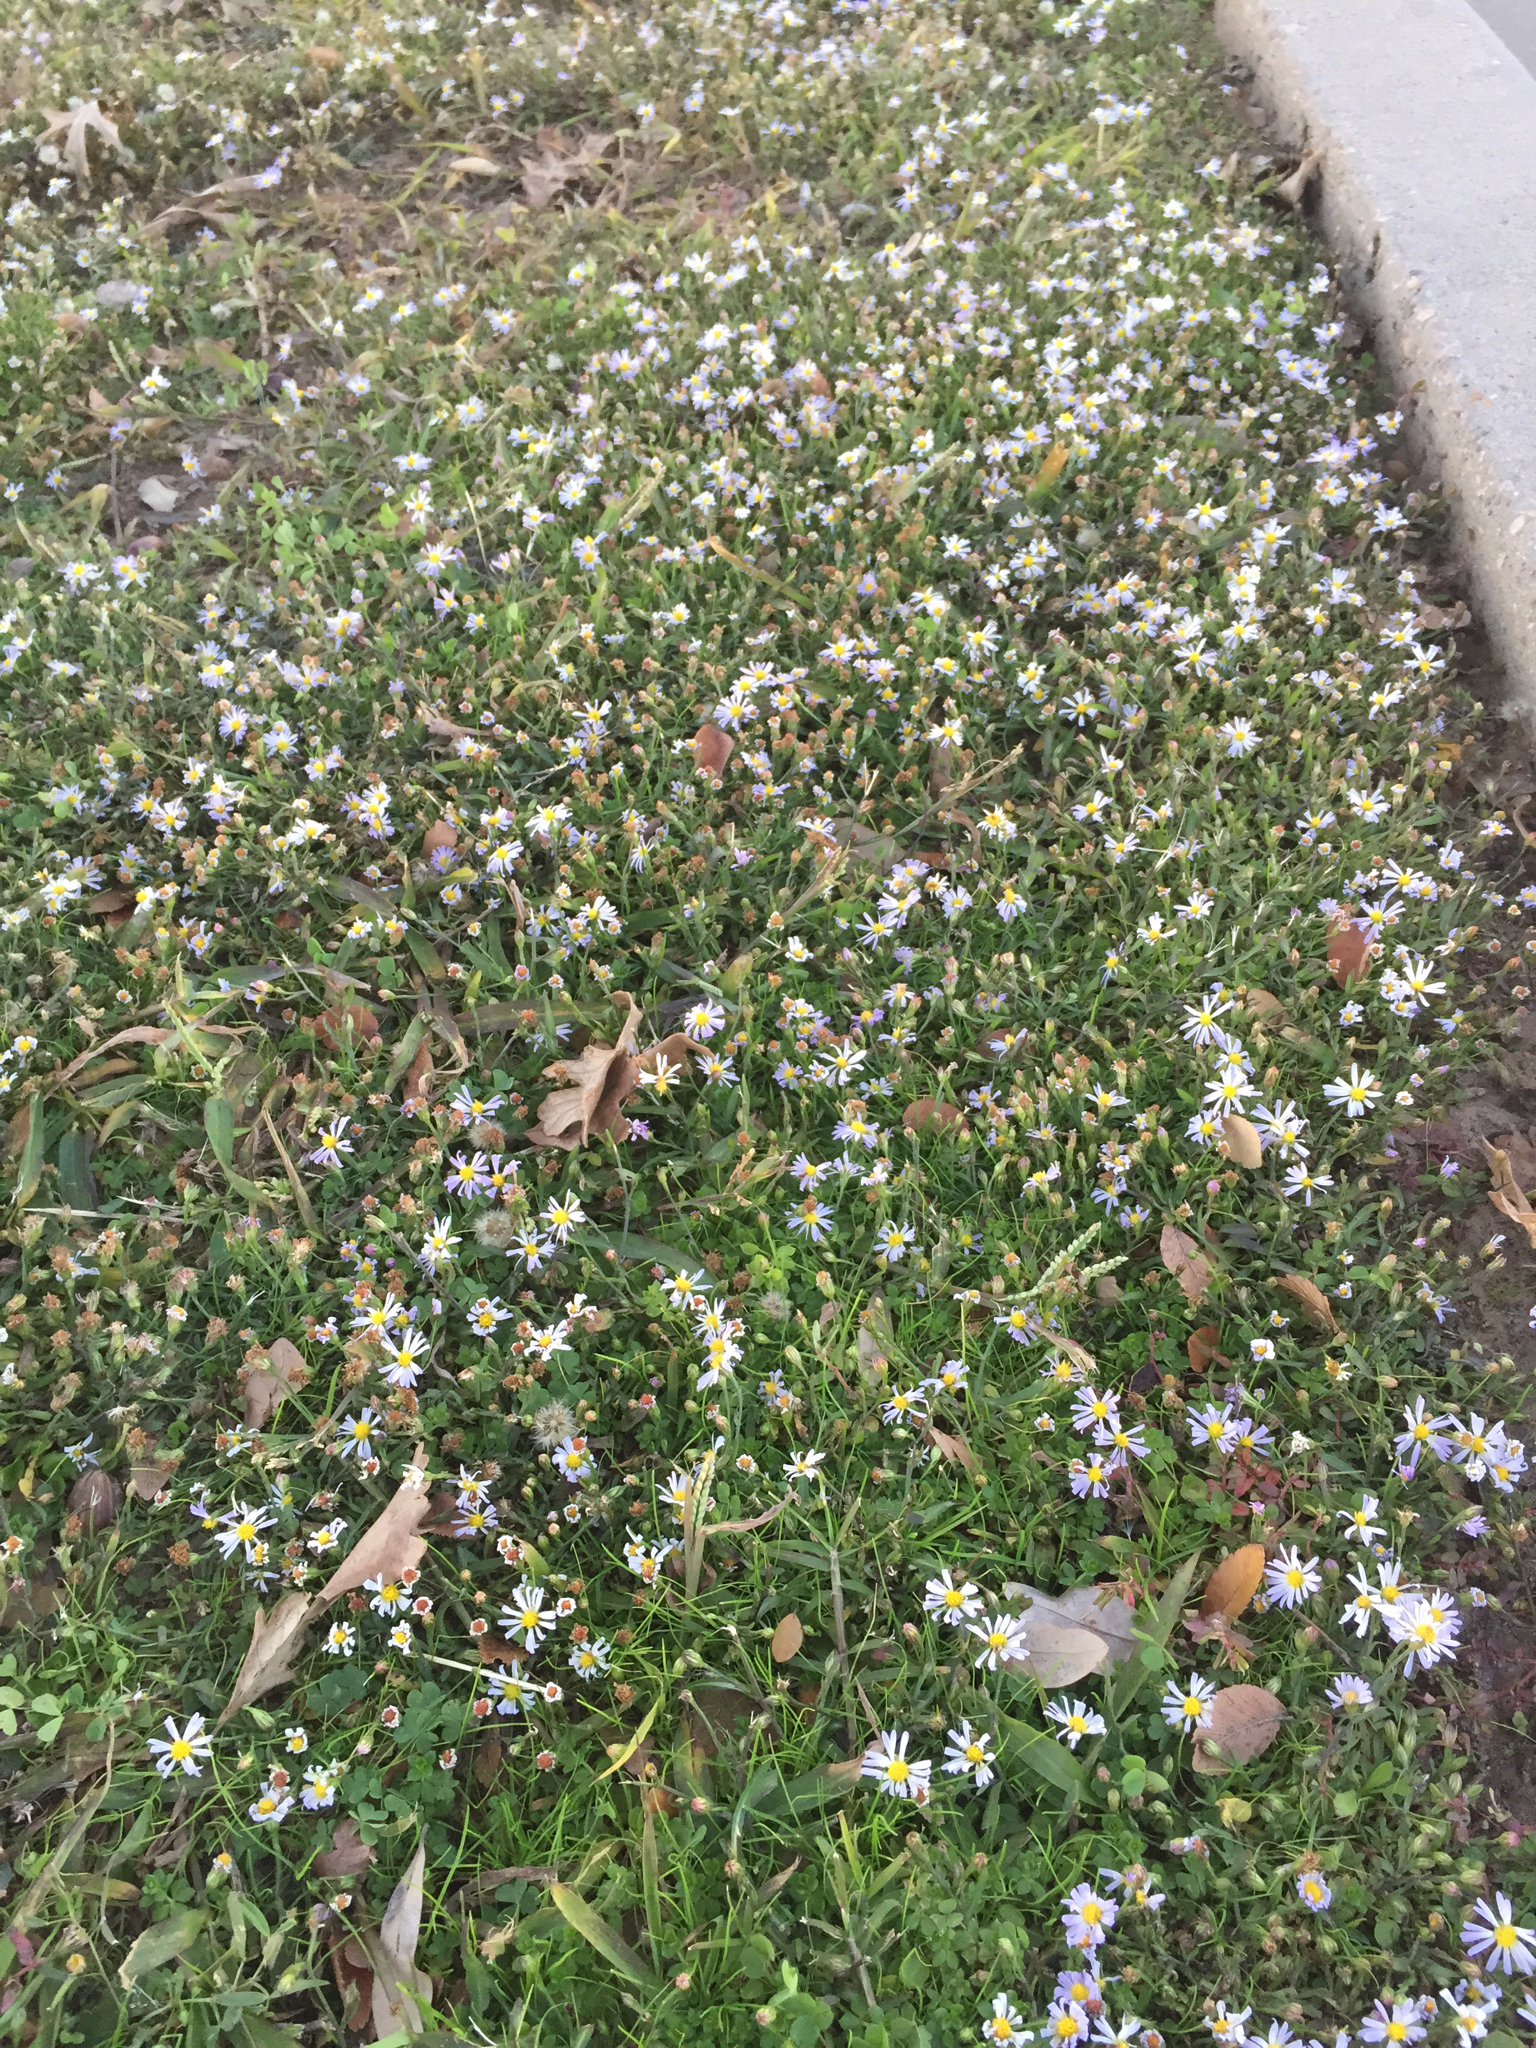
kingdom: Plantae
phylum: Tracheophyta
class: Magnoliopsida
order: Asterales
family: Asteraceae
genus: Symphyotrichum
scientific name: Symphyotrichum divaricatum
